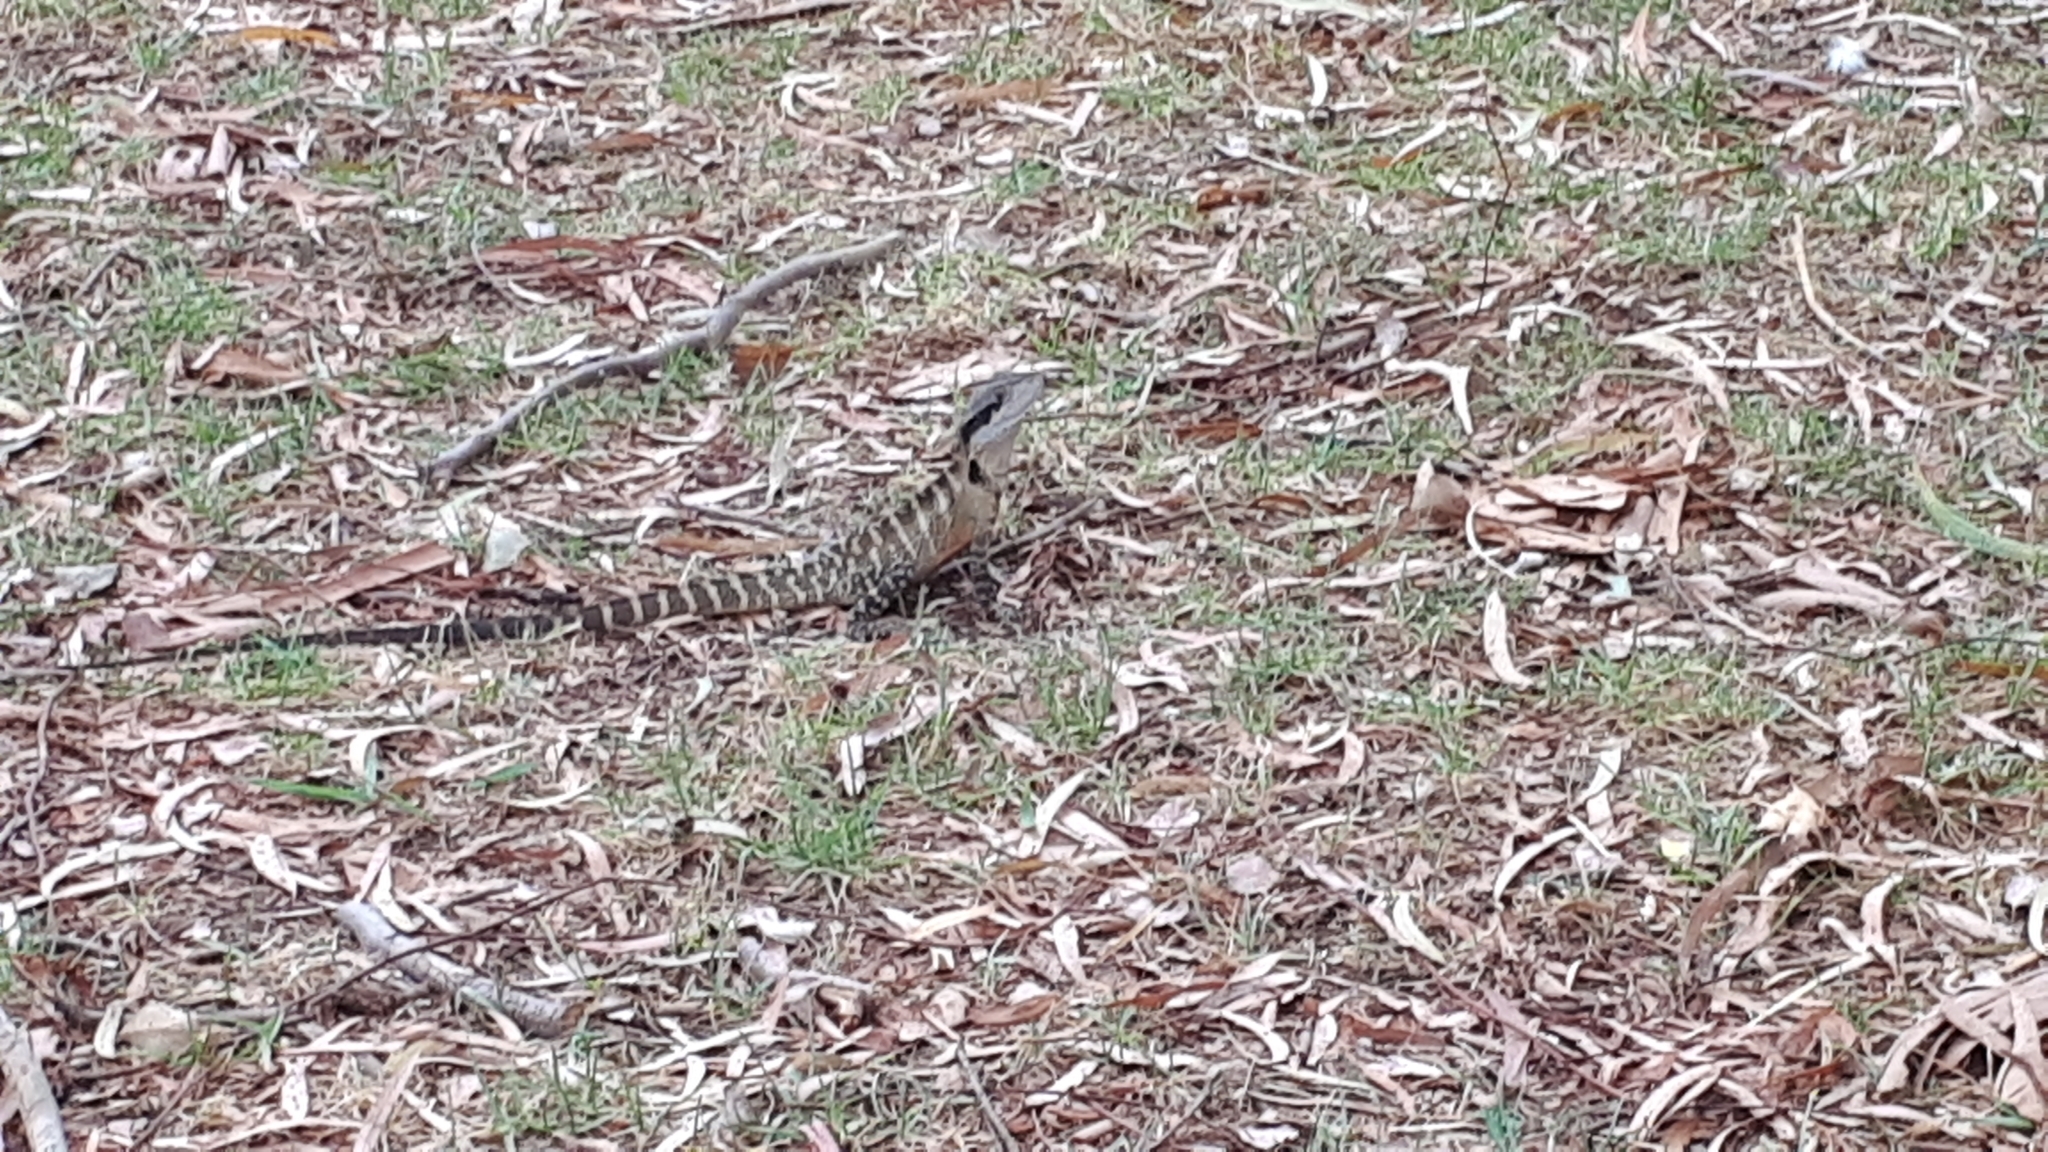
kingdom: Animalia
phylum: Chordata
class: Squamata
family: Agamidae
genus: Intellagama
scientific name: Intellagama lesueurii
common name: Eastern water dragon
